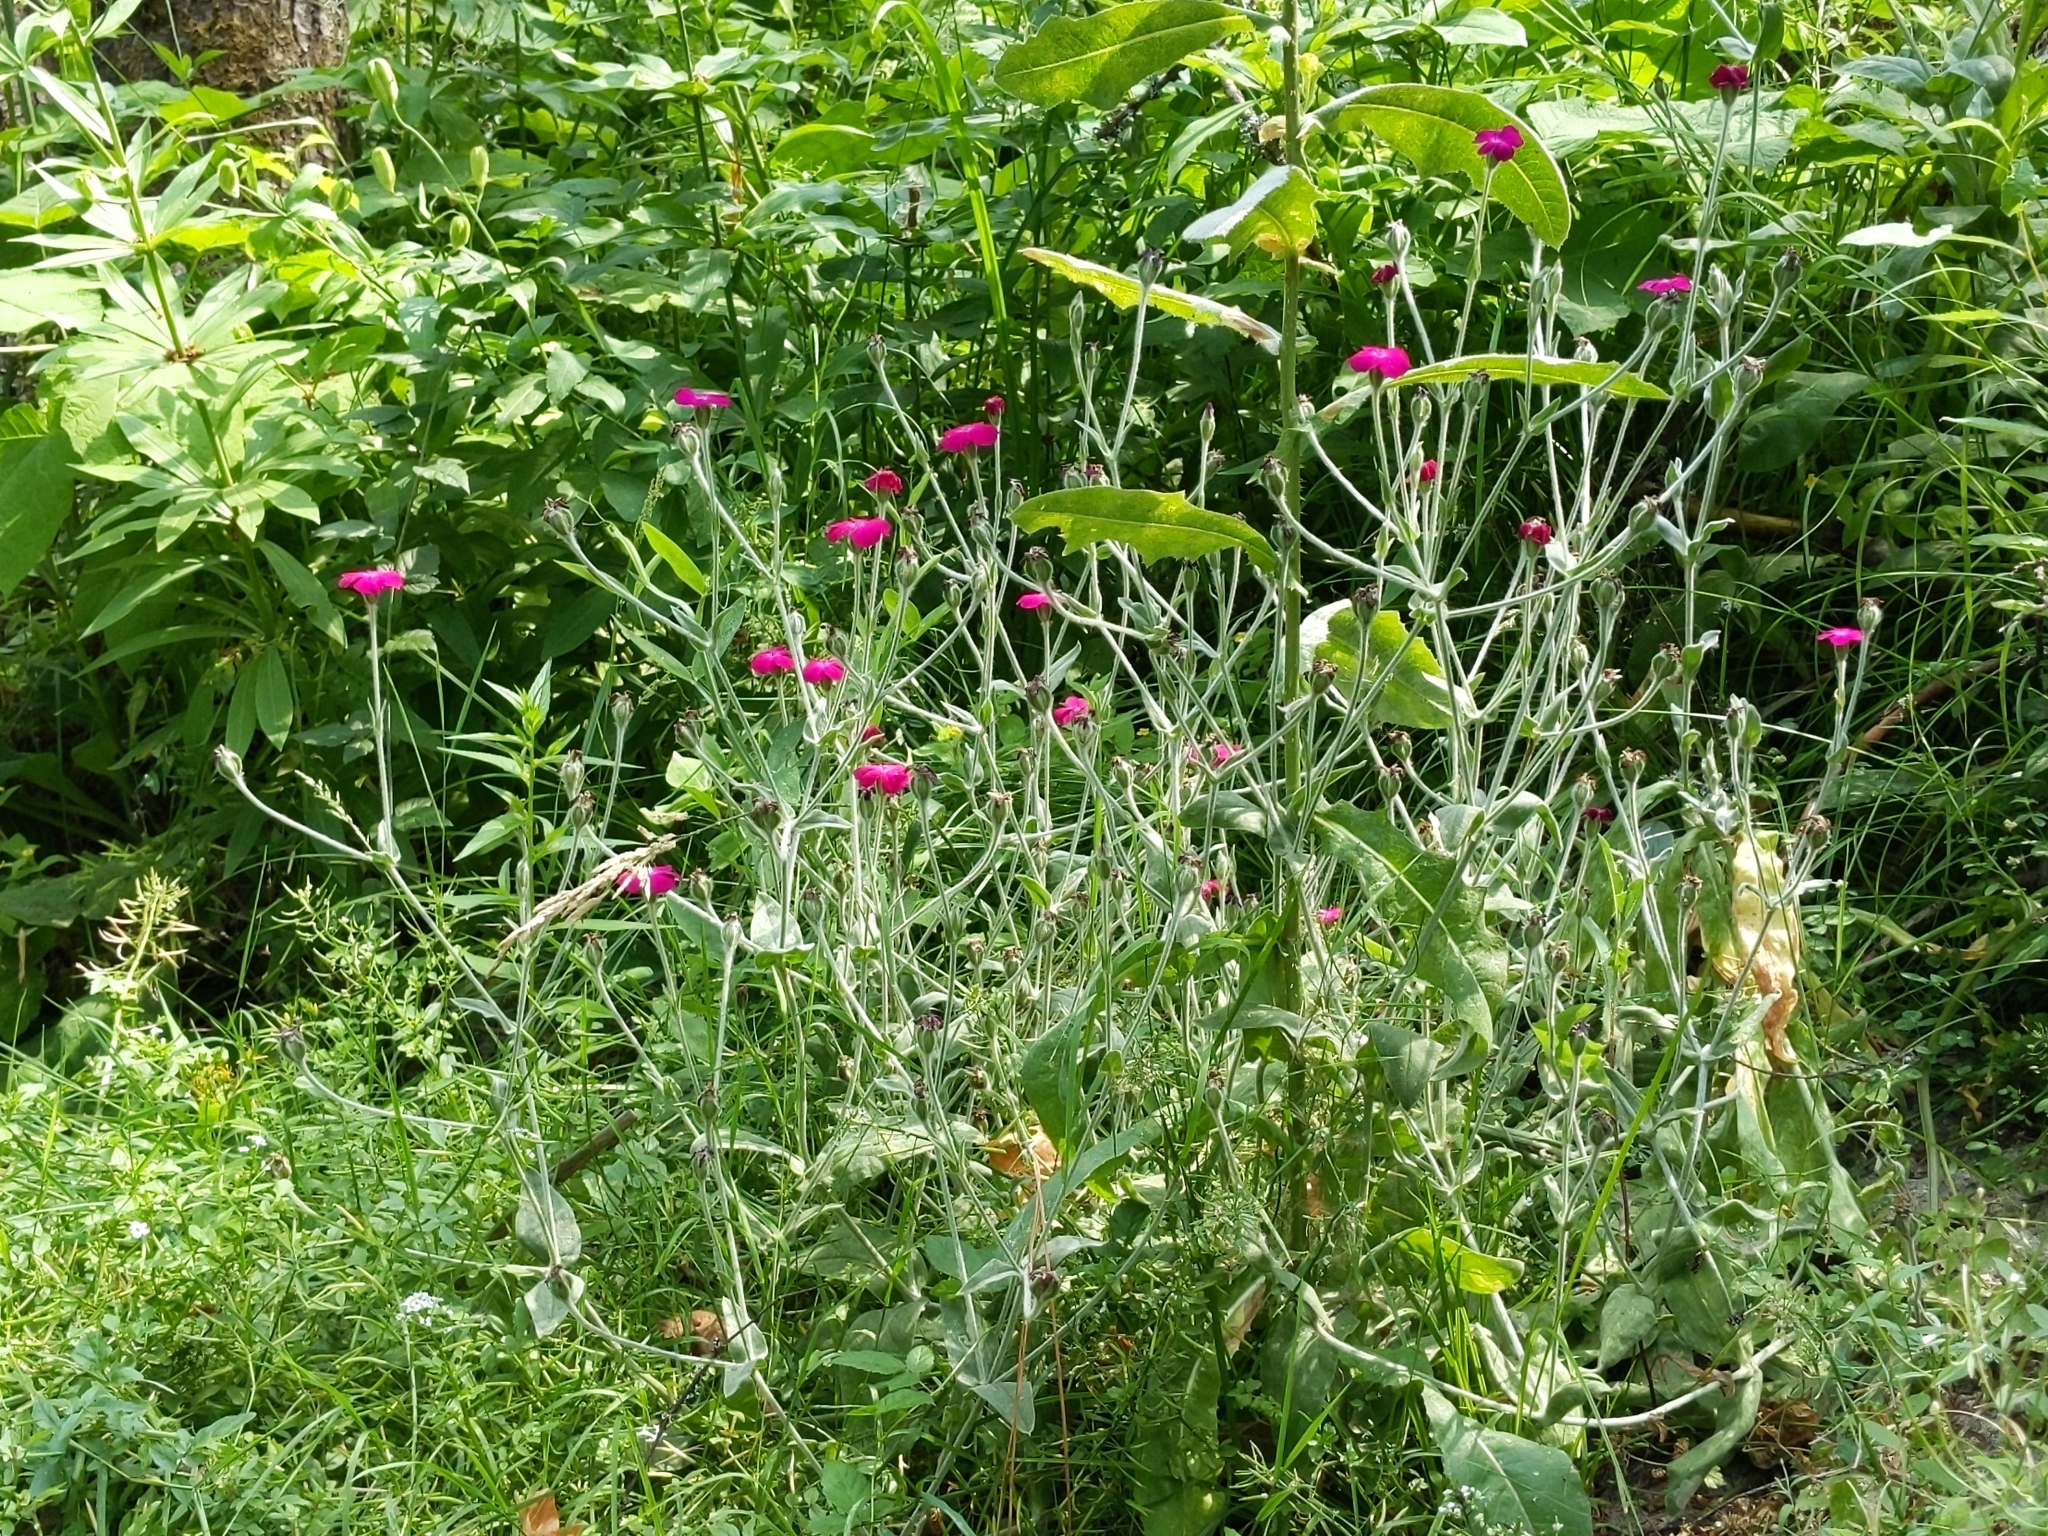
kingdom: Plantae
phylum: Tracheophyta
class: Magnoliopsida
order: Caryophyllales
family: Caryophyllaceae
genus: Silene
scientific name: Silene coronaria
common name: Rose campion
